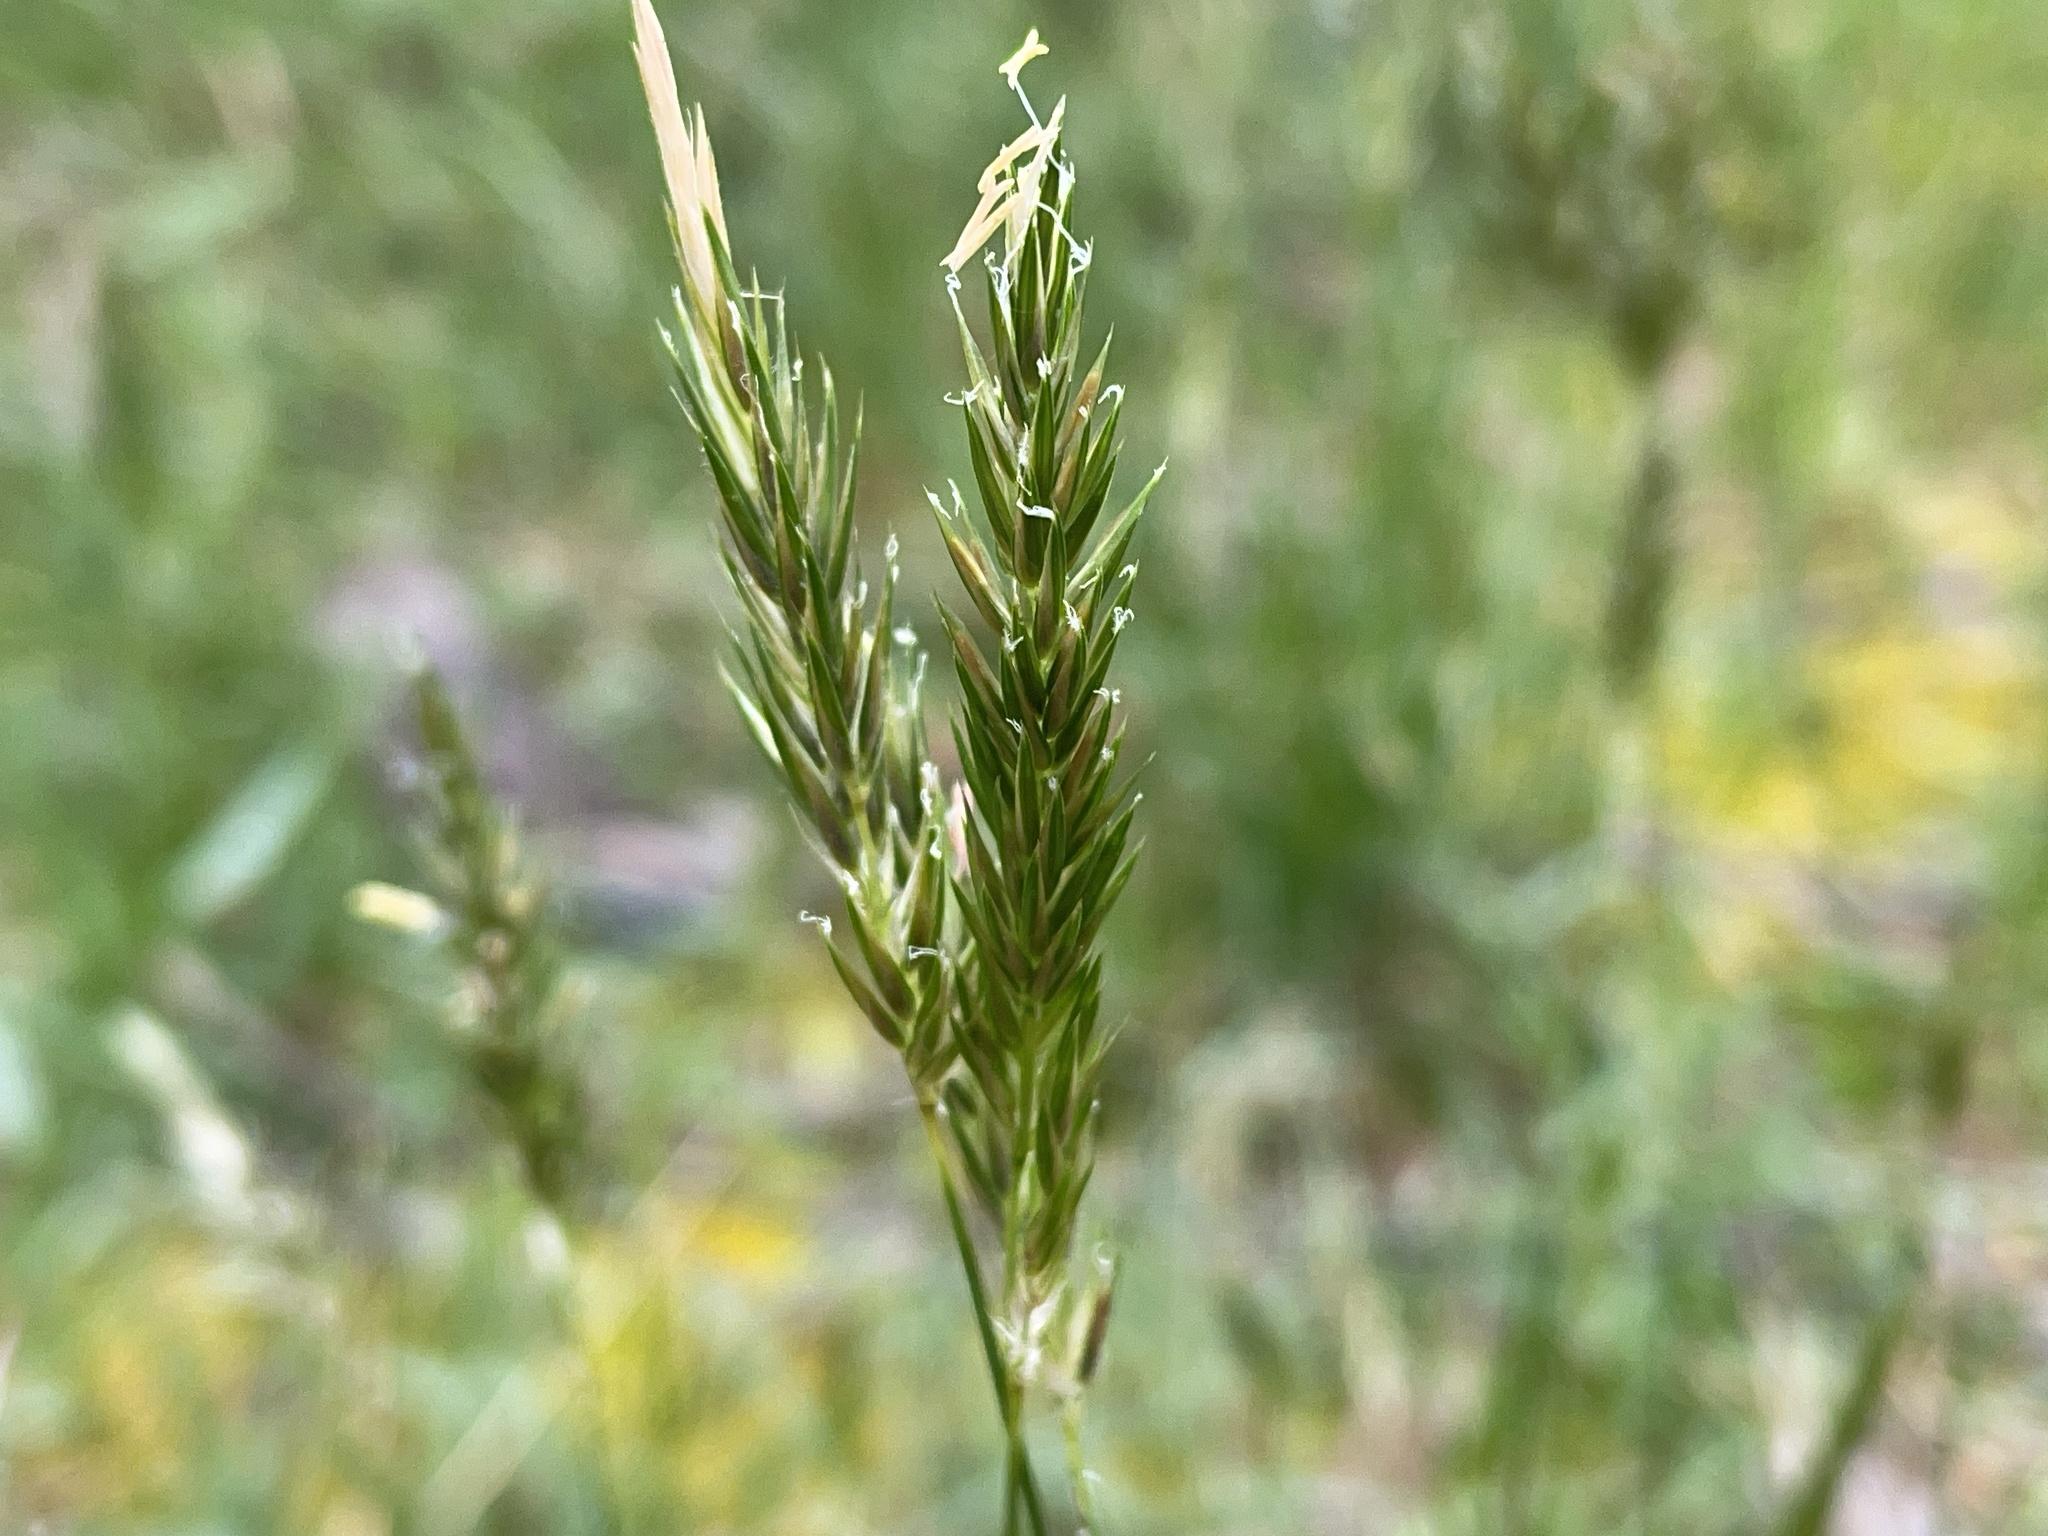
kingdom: Plantae
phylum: Tracheophyta
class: Liliopsida
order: Poales
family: Poaceae
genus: Anthoxanthum
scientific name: Anthoxanthum odoratum
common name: Sweet vernalgrass
